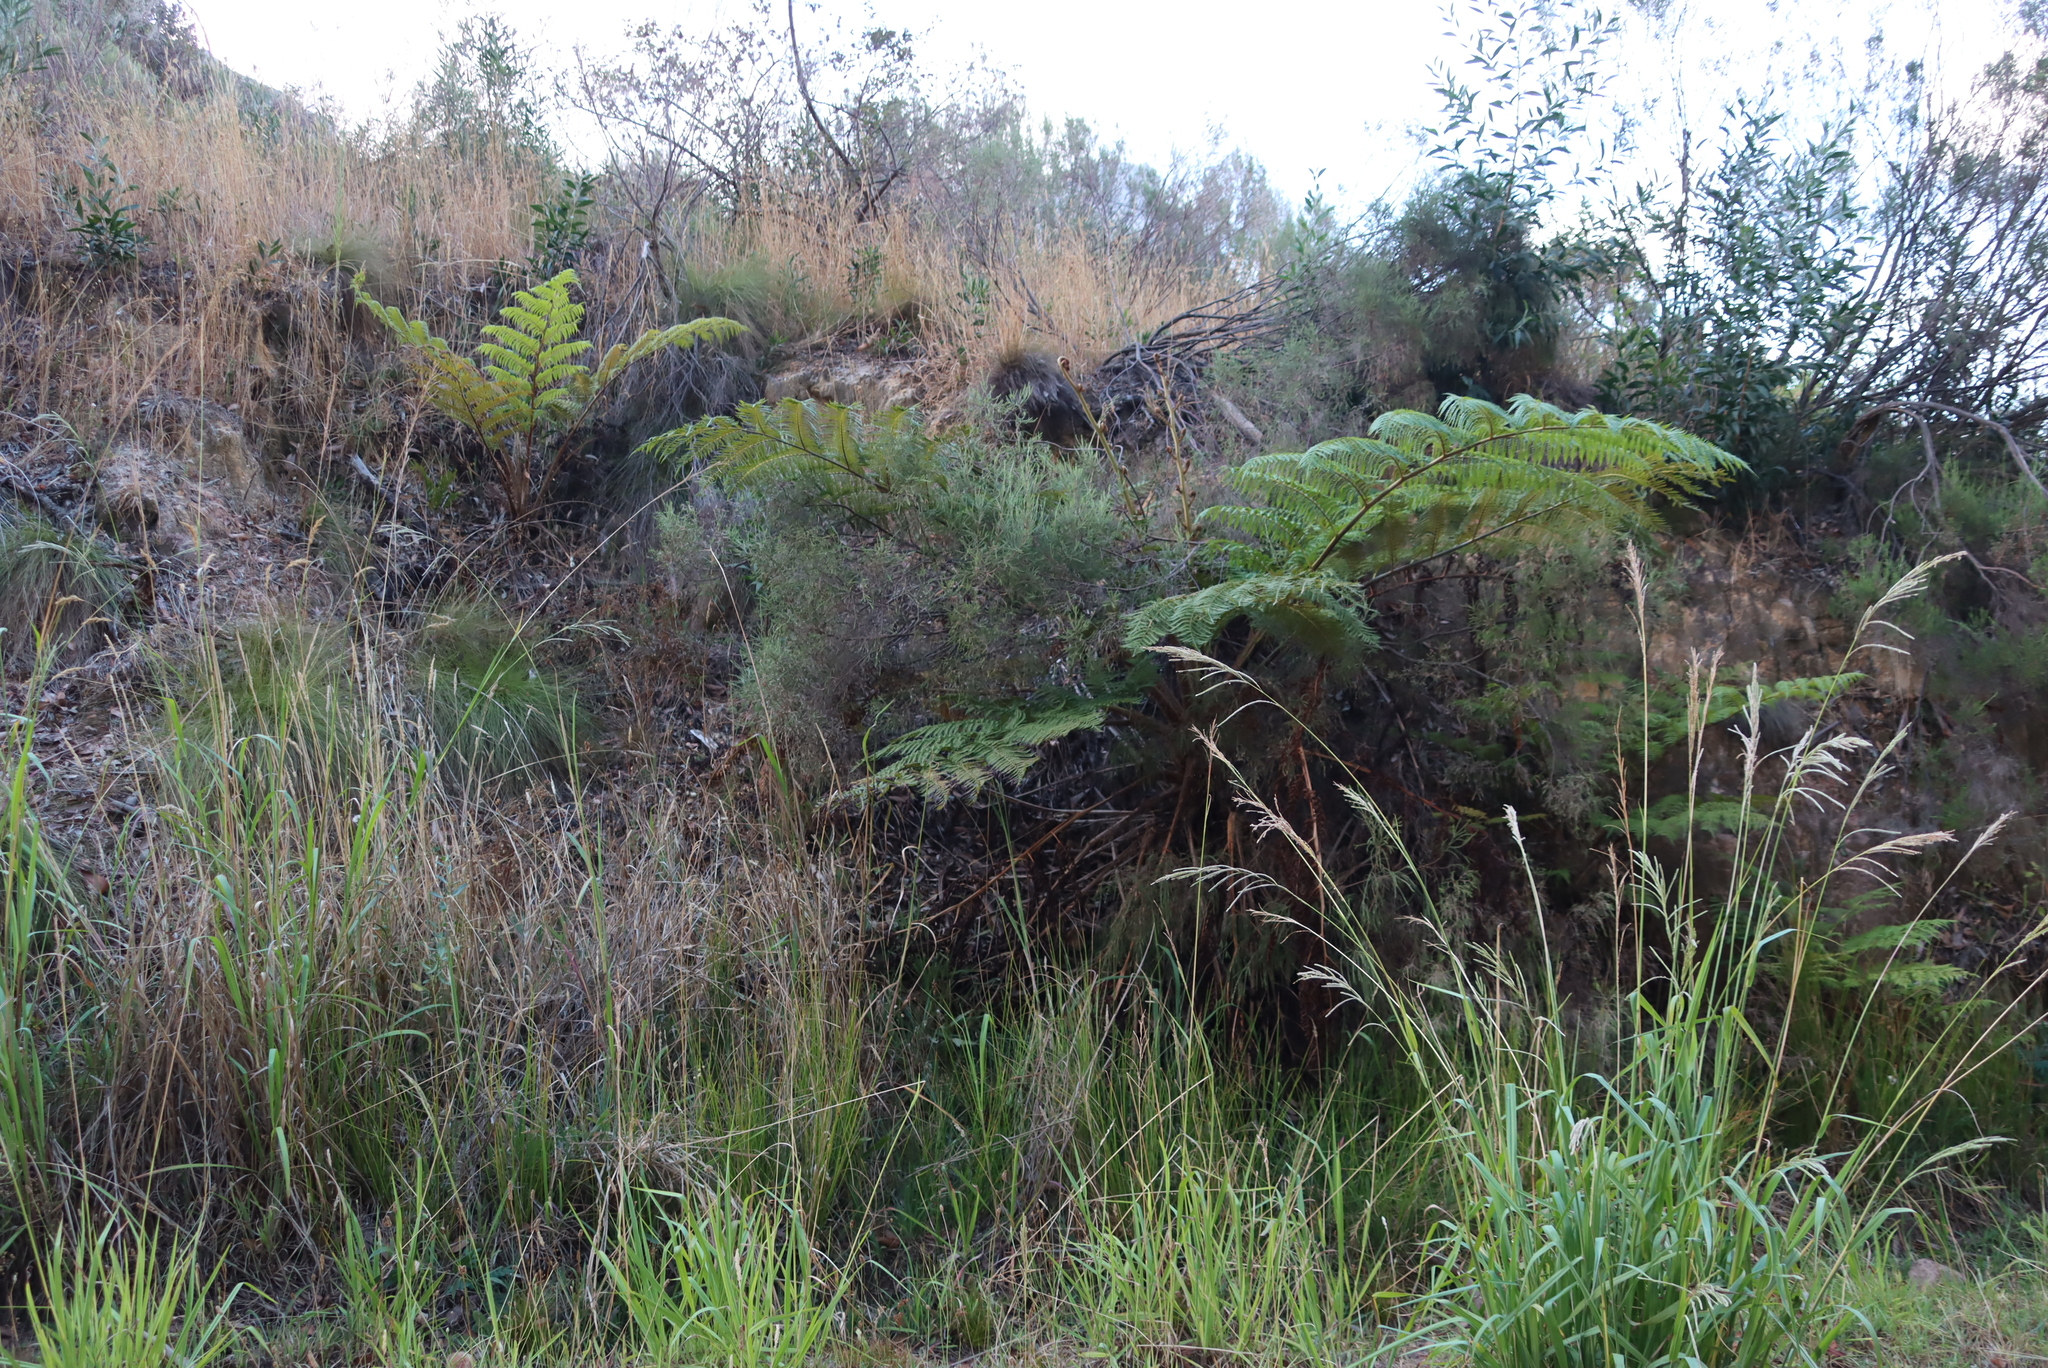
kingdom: Plantae
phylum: Tracheophyta
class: Liliopsida
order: Poales
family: Poaceae
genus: Paspalum
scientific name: Paspalum urvillei
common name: Vasey's grass
